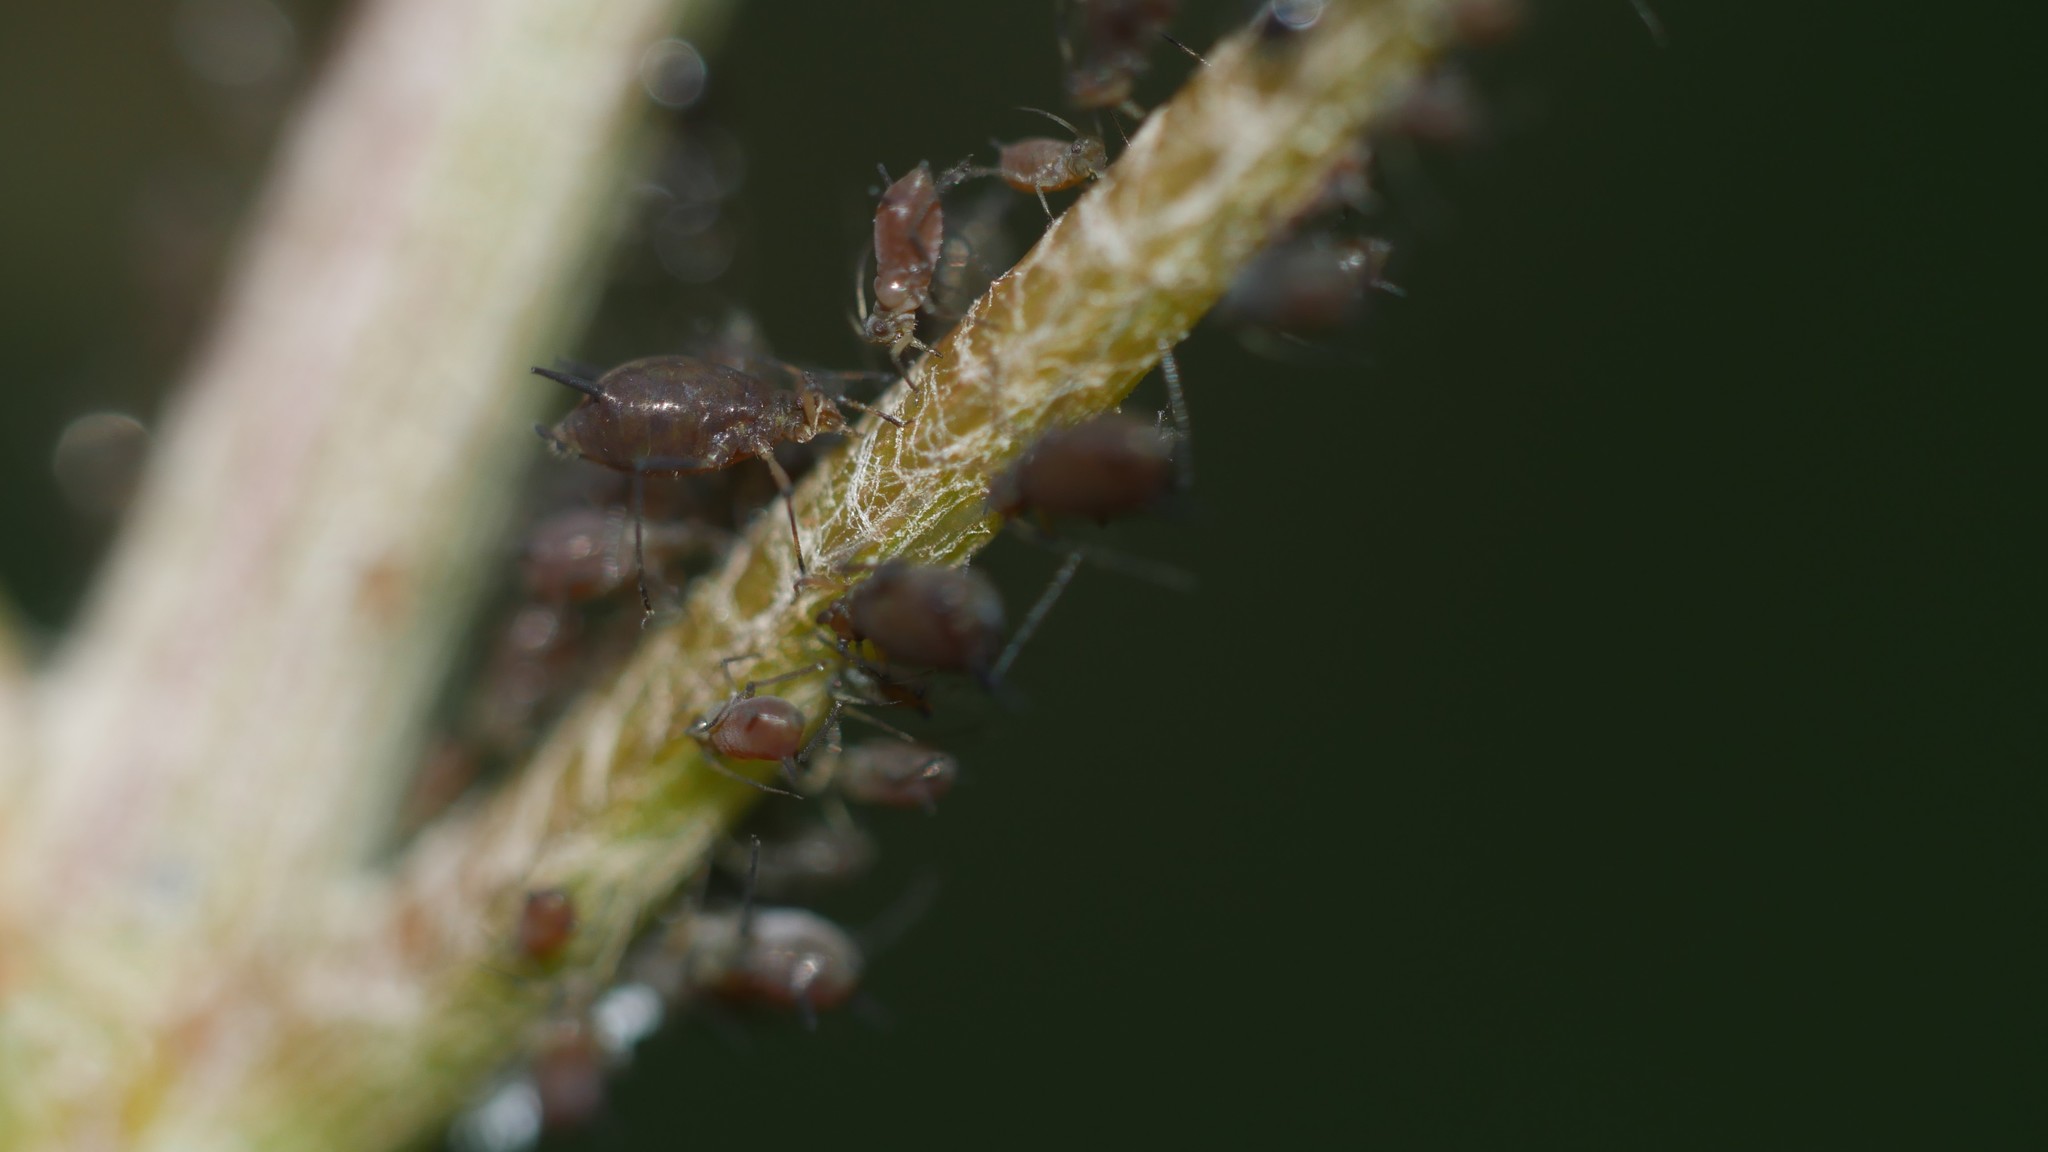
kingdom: Animalia
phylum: Arthropoda
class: Insecta
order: Hemiptera
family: Aphididae
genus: Aphis
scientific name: Aphis illinoisensis
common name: Grapevine aphid
